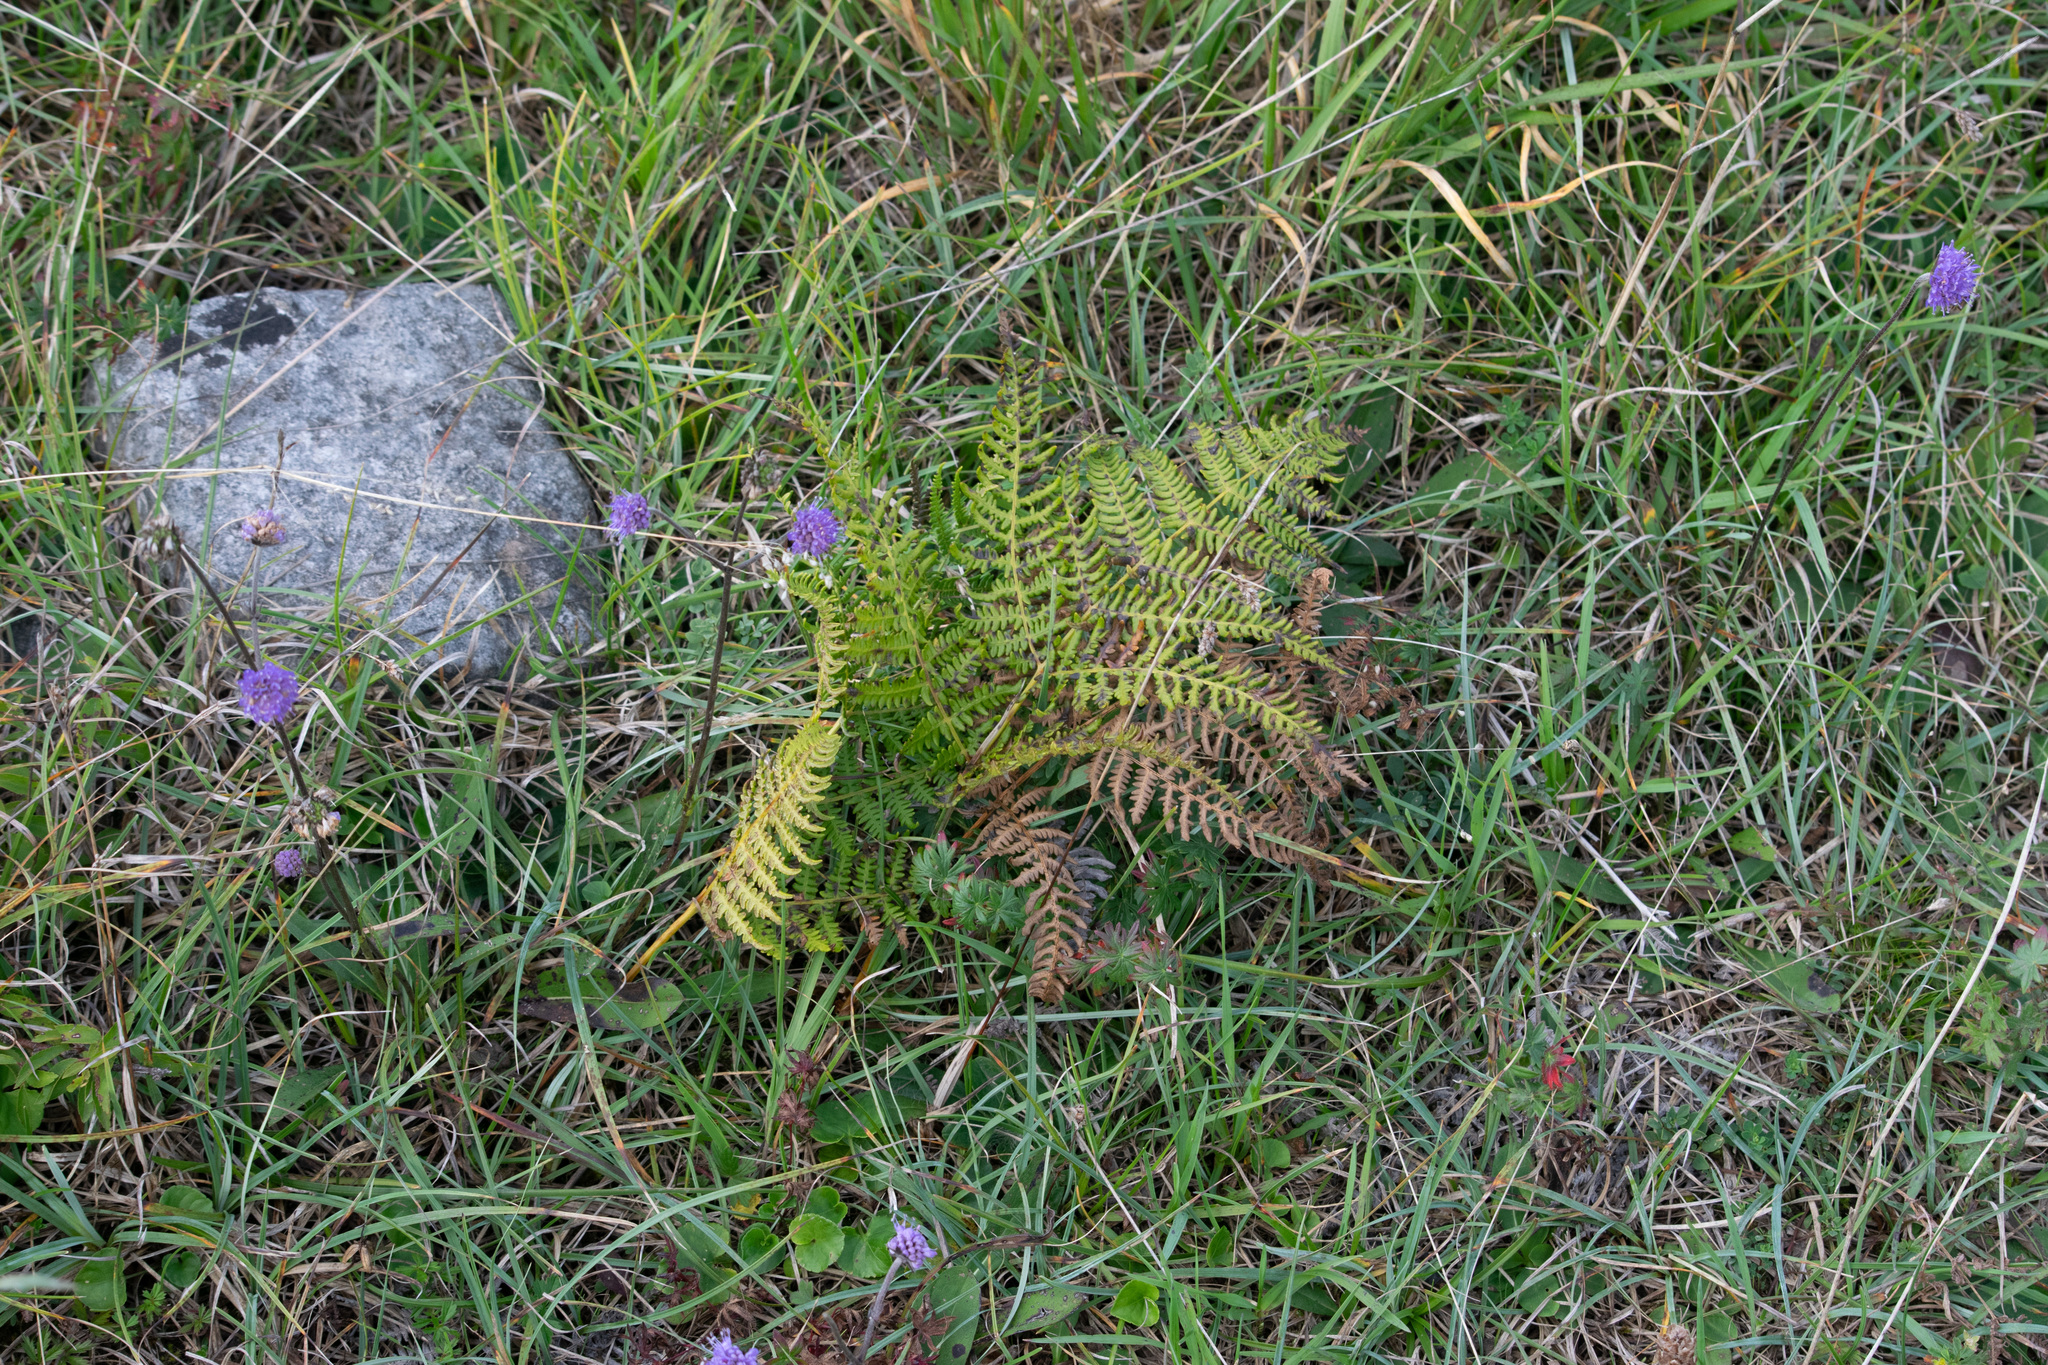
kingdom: Plantae
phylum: Tracheophyta
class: Polypodiopsida
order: Polypodiales
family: Dennstaedtiaceae
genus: Pteridium
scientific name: Pteridium aquilinum
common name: Bracken
